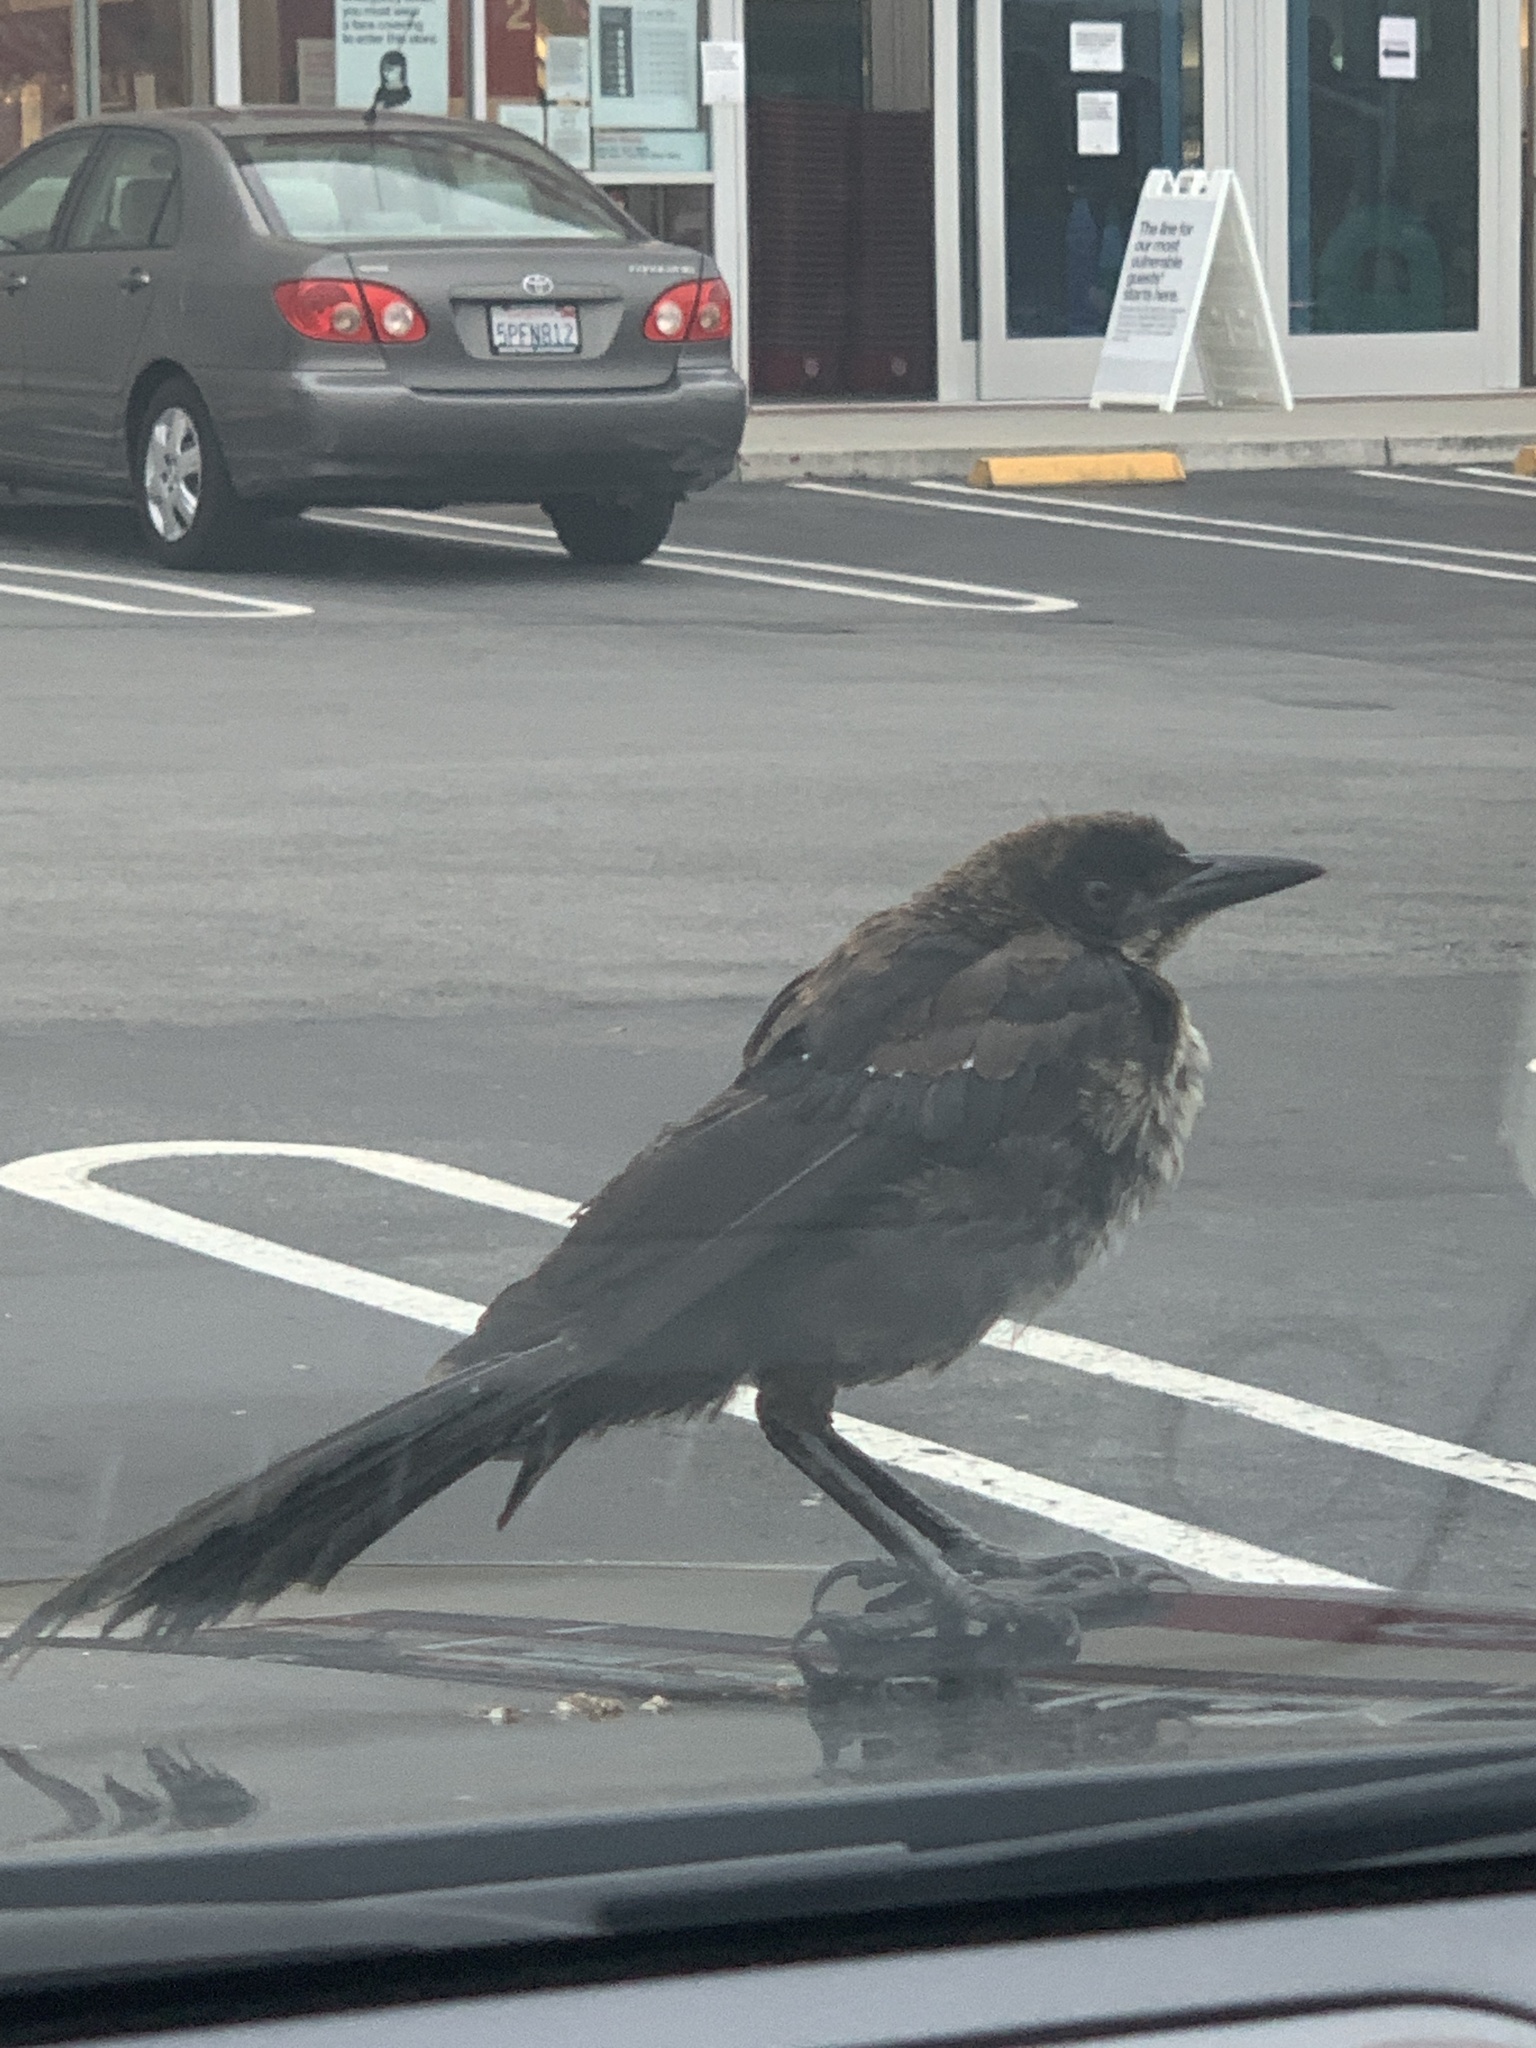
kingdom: Animalia
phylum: Chordata
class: Aves
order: Passeriformes
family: Icteridae
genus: Quiscalus
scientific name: Quiscalus mexicanus
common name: Great-tailed grackle
